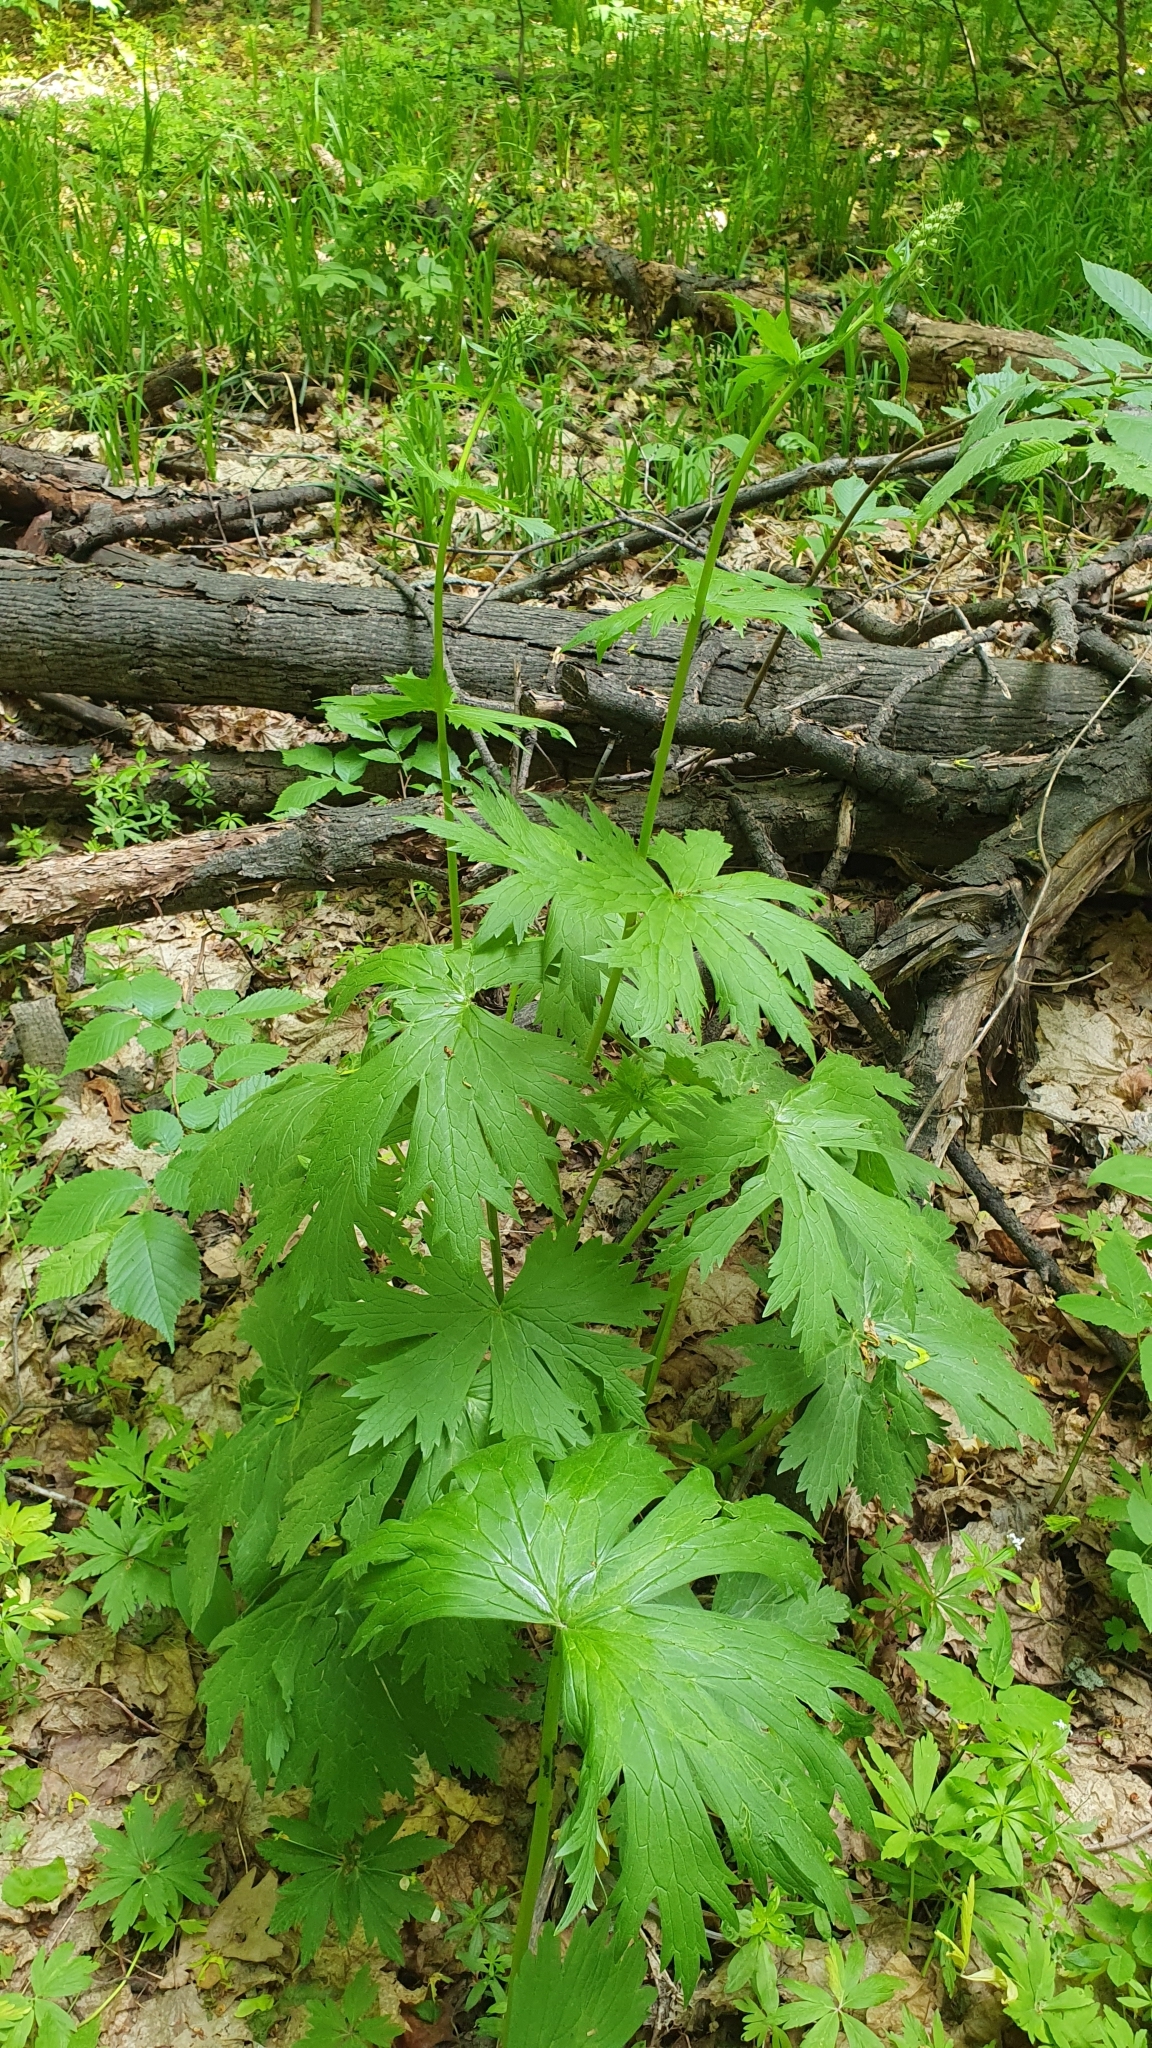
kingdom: Plantae
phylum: Tracheophyta
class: Magnoliopsida
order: Ranunculales
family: Ranunculaceae
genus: Aconitum
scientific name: Aconitum septentrionale
